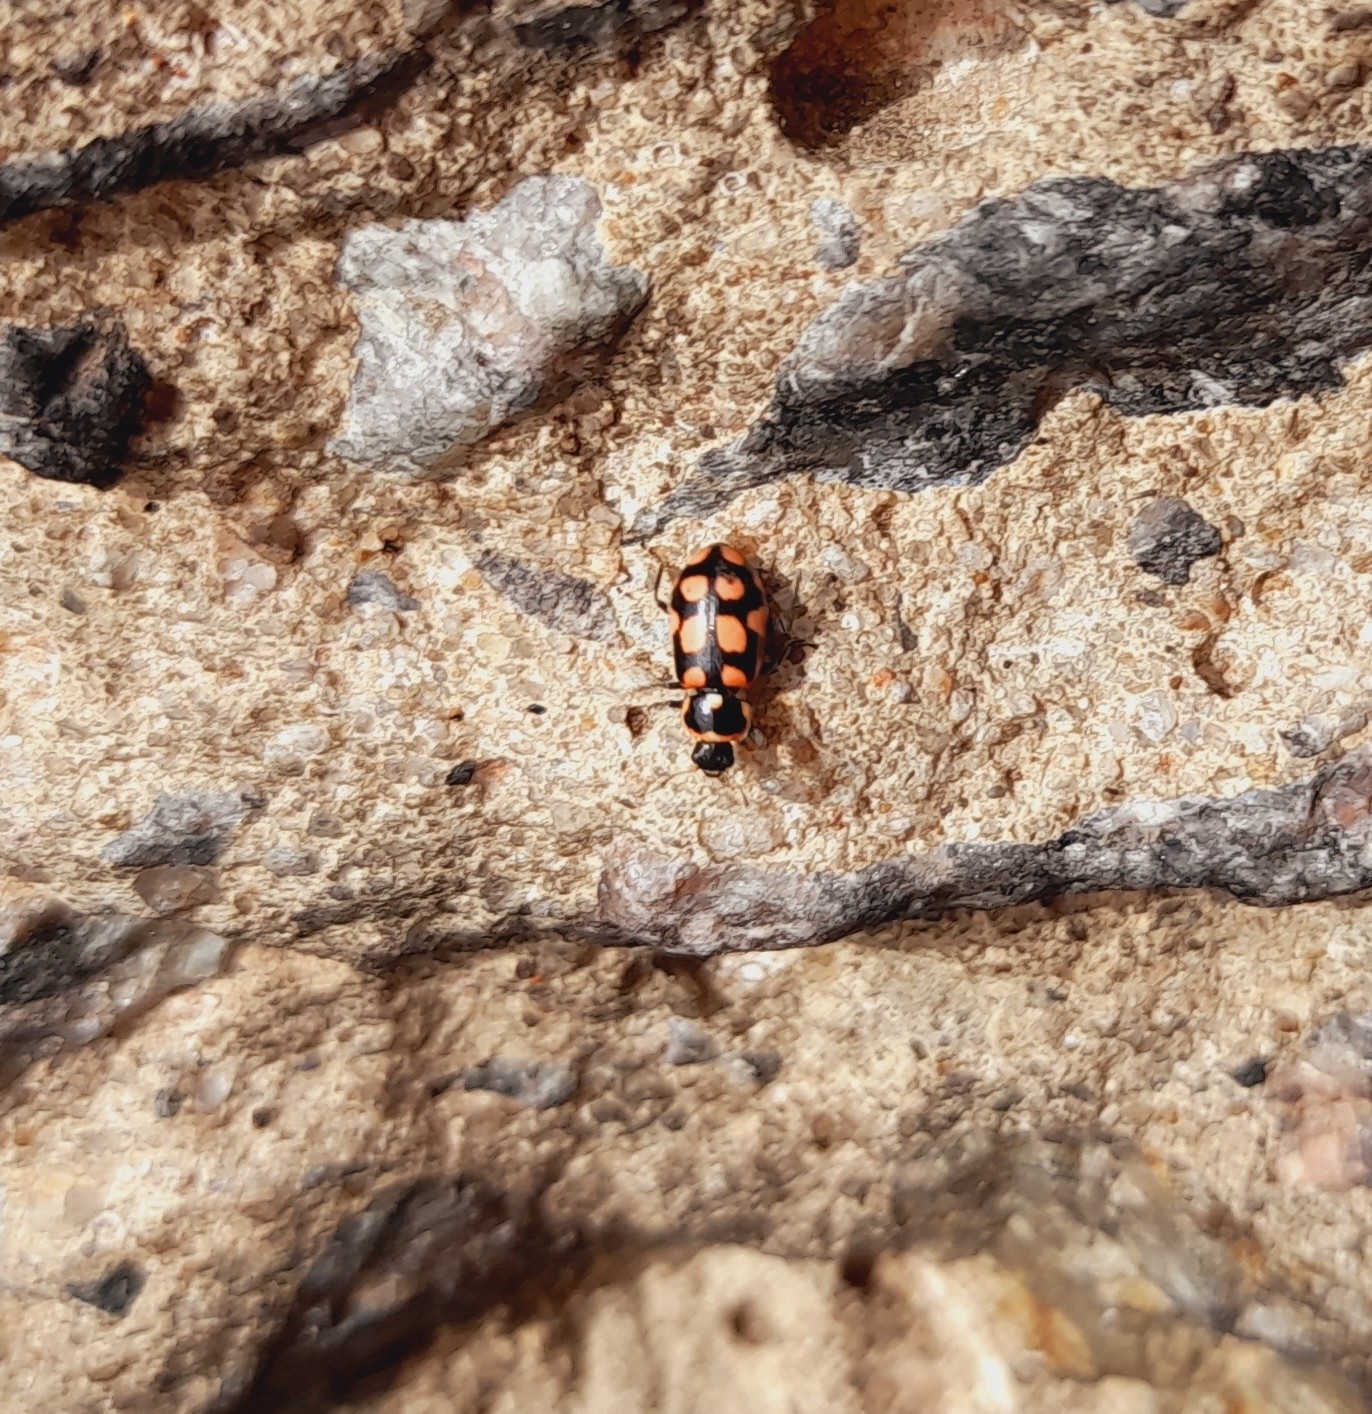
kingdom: Animalia
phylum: Arthropoda
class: Insecta
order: Coleoptera
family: Coccinellidae
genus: Eriopis
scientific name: Eriopis
